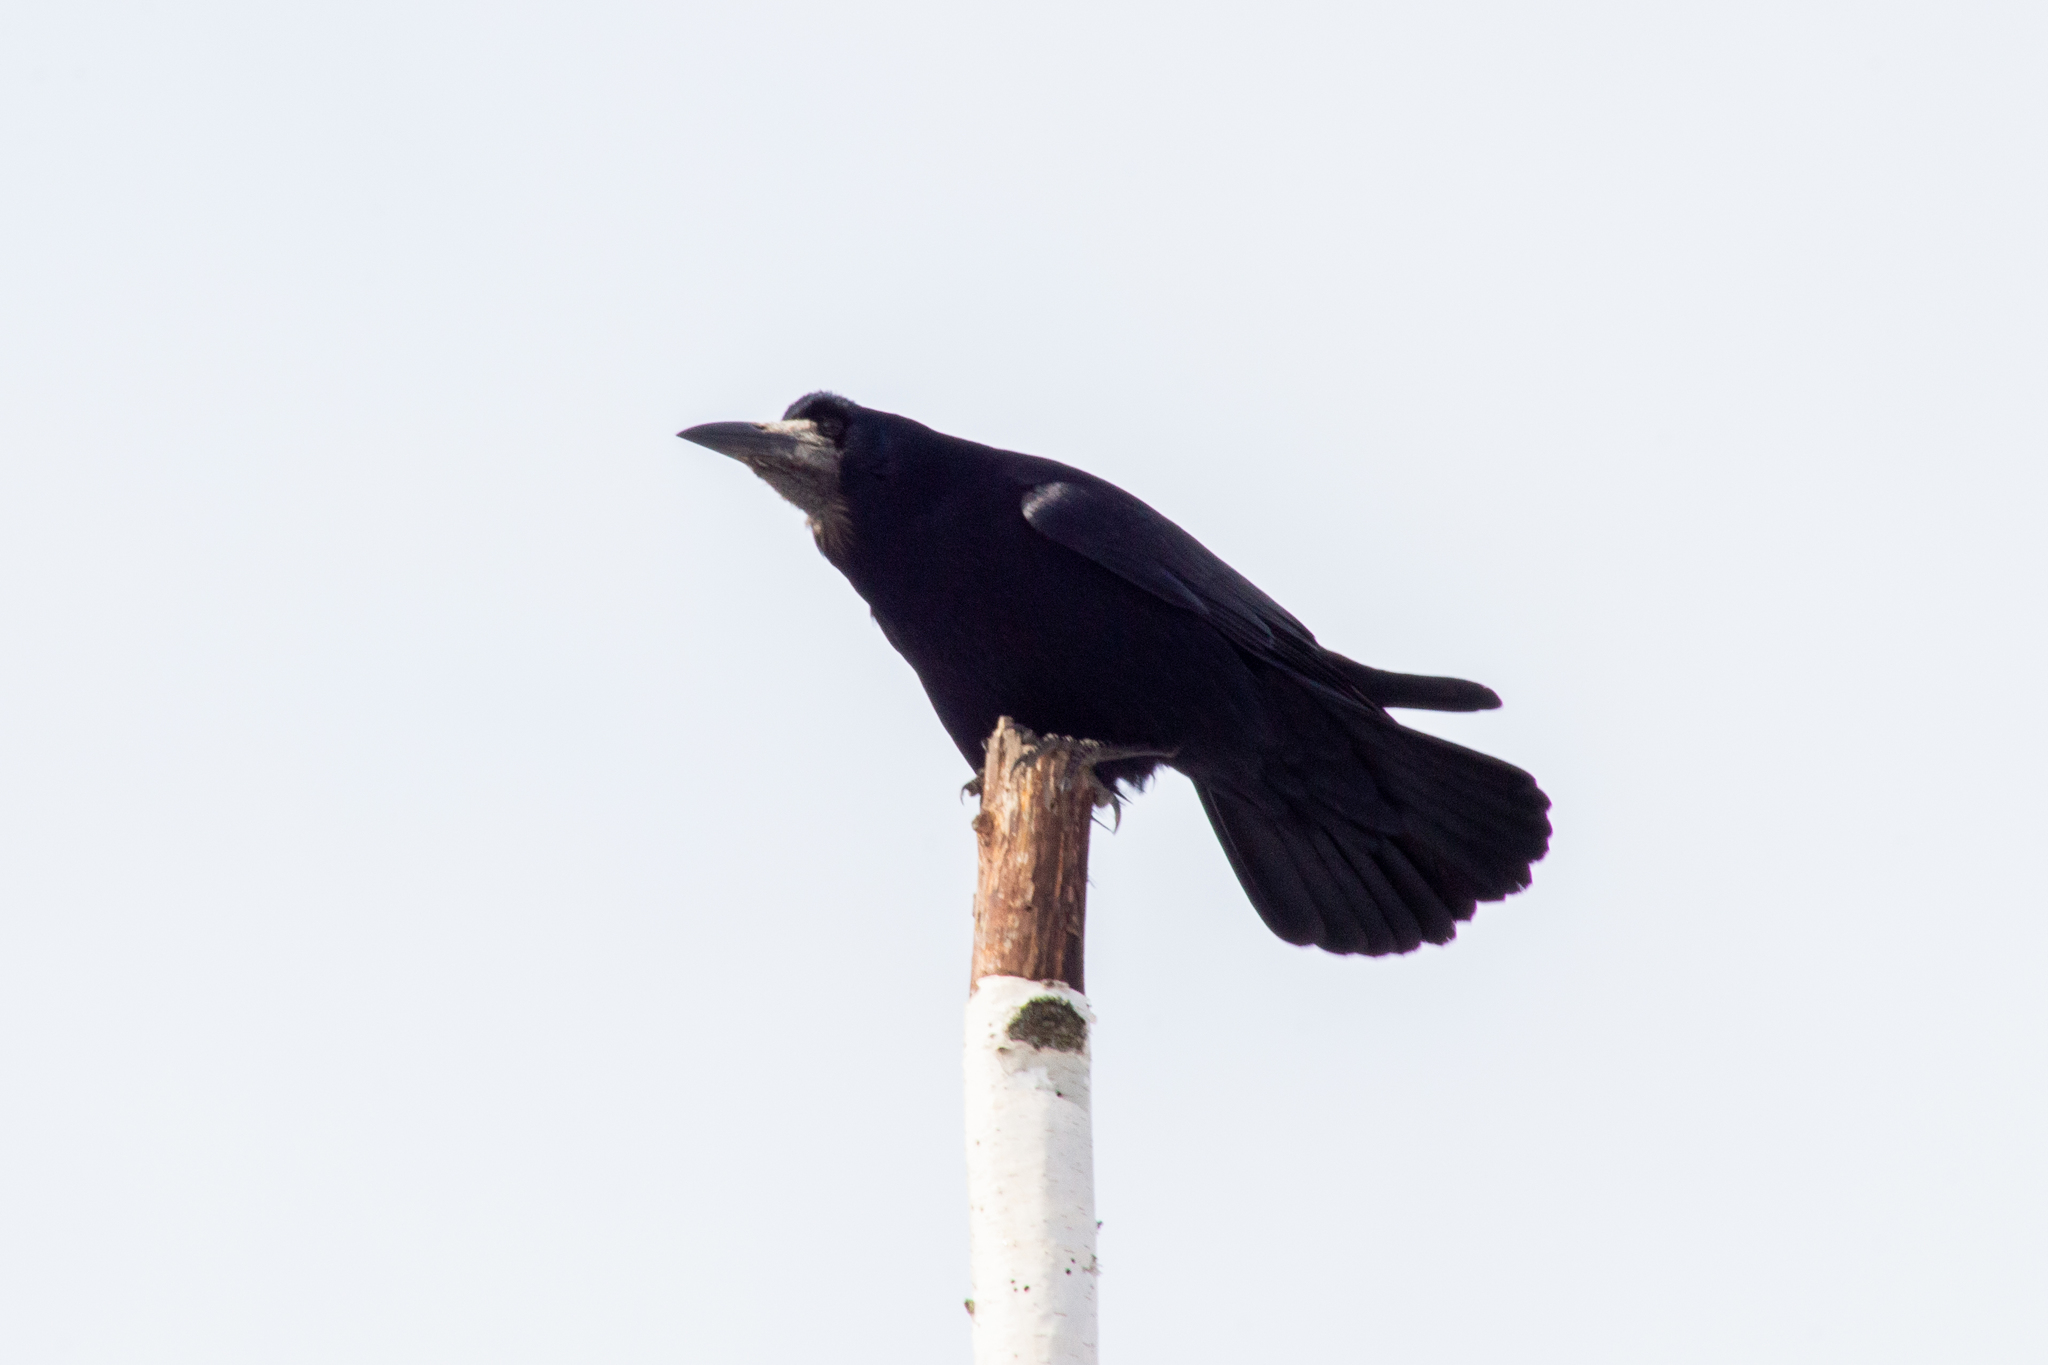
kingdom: Animalia
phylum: Chordata
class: Aves
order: Passeriformes
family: Corvidae
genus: Corvus
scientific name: Corvus frugilegus
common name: Rook
